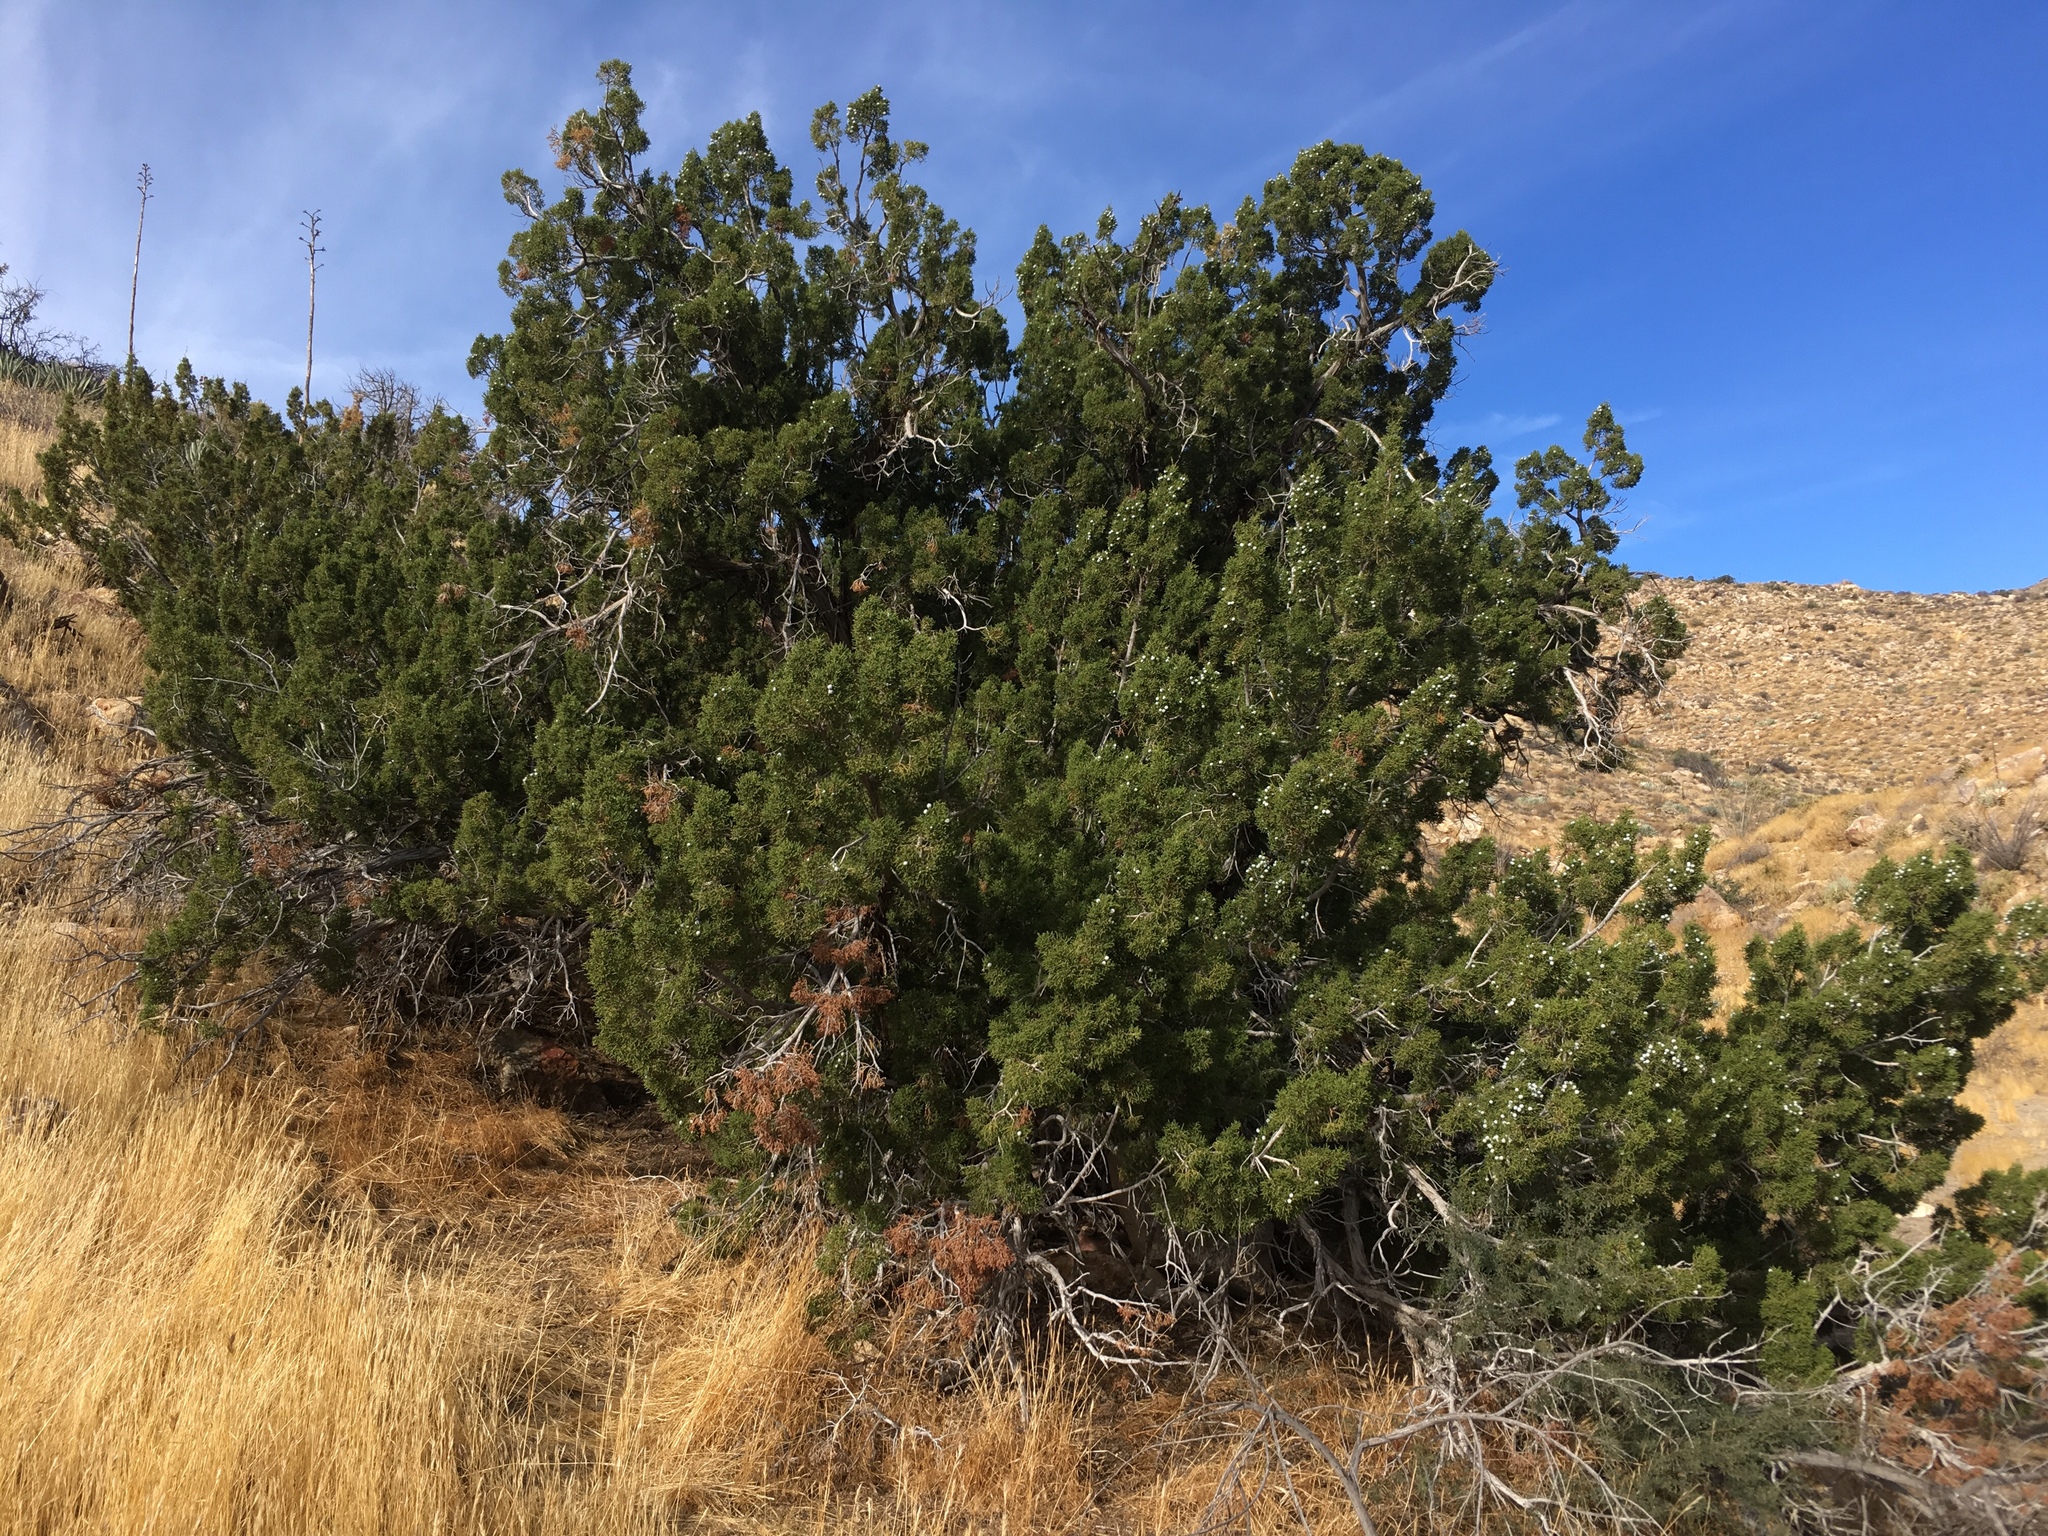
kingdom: Plantae
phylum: Tracheophyta
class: Pinopsida
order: Pinales
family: Cupressaceae
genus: Juniperus
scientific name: Juniperus californica
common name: California juniper
